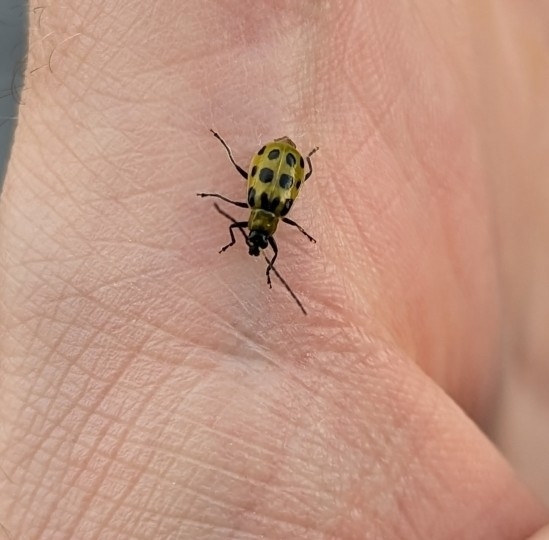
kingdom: Animalia
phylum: Arthropoda
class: Insecta
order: Coleoptera
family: Chrysomelidae
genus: Diabrotica
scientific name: Diabrotica undecimpunctata
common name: Spotted cucumber beetle
